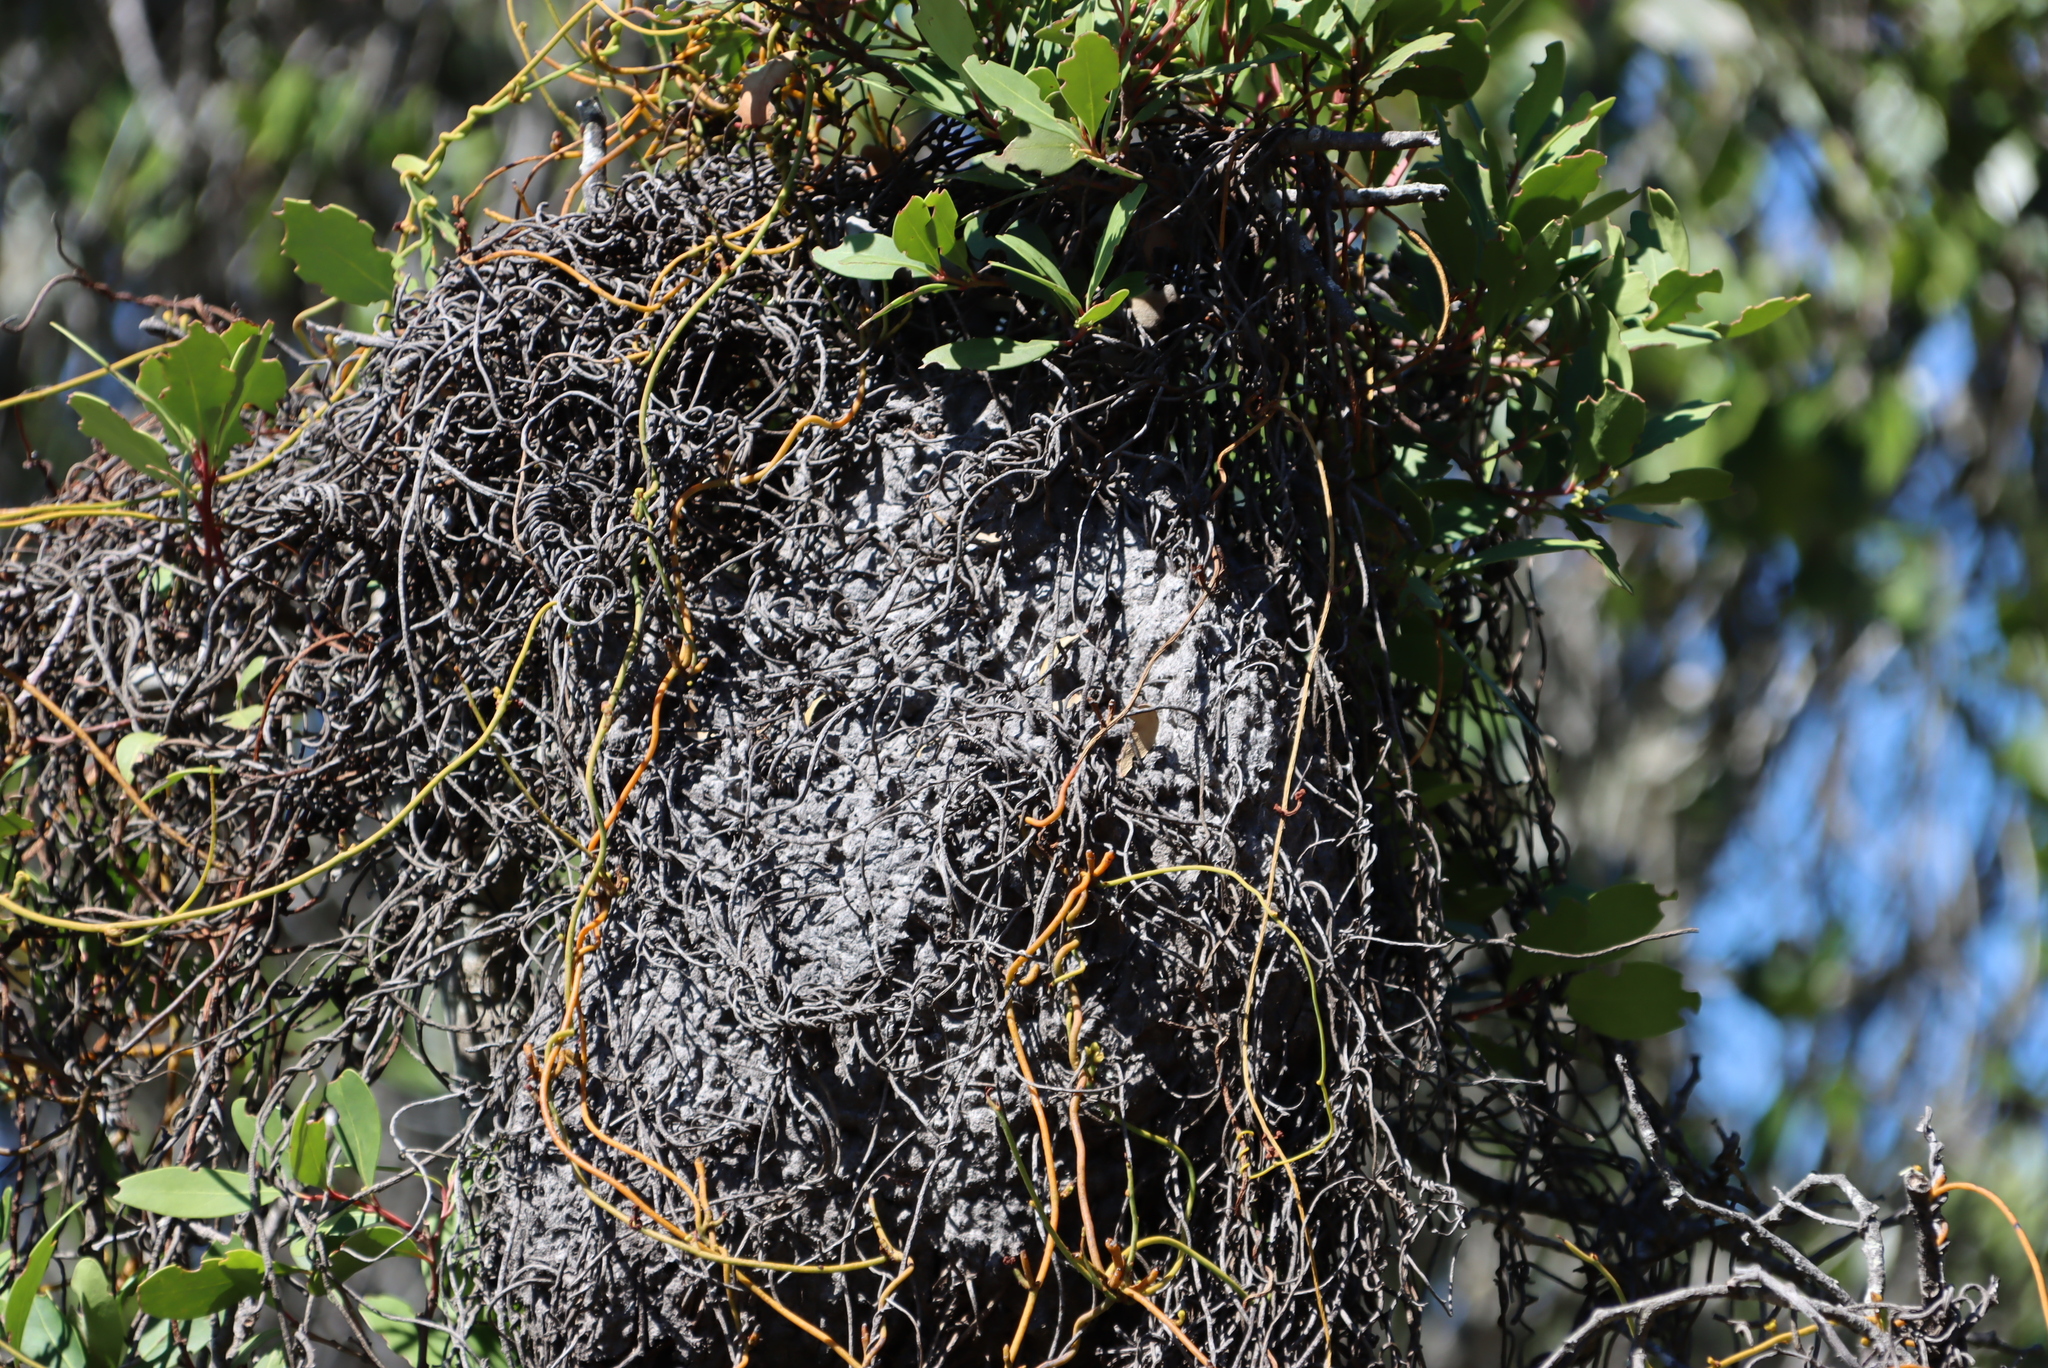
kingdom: Plantae
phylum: Tracheophyta
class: Magnoliopsida
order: Laurales
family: Lauraceae
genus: Cassytha
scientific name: Cassytha ciliolata
